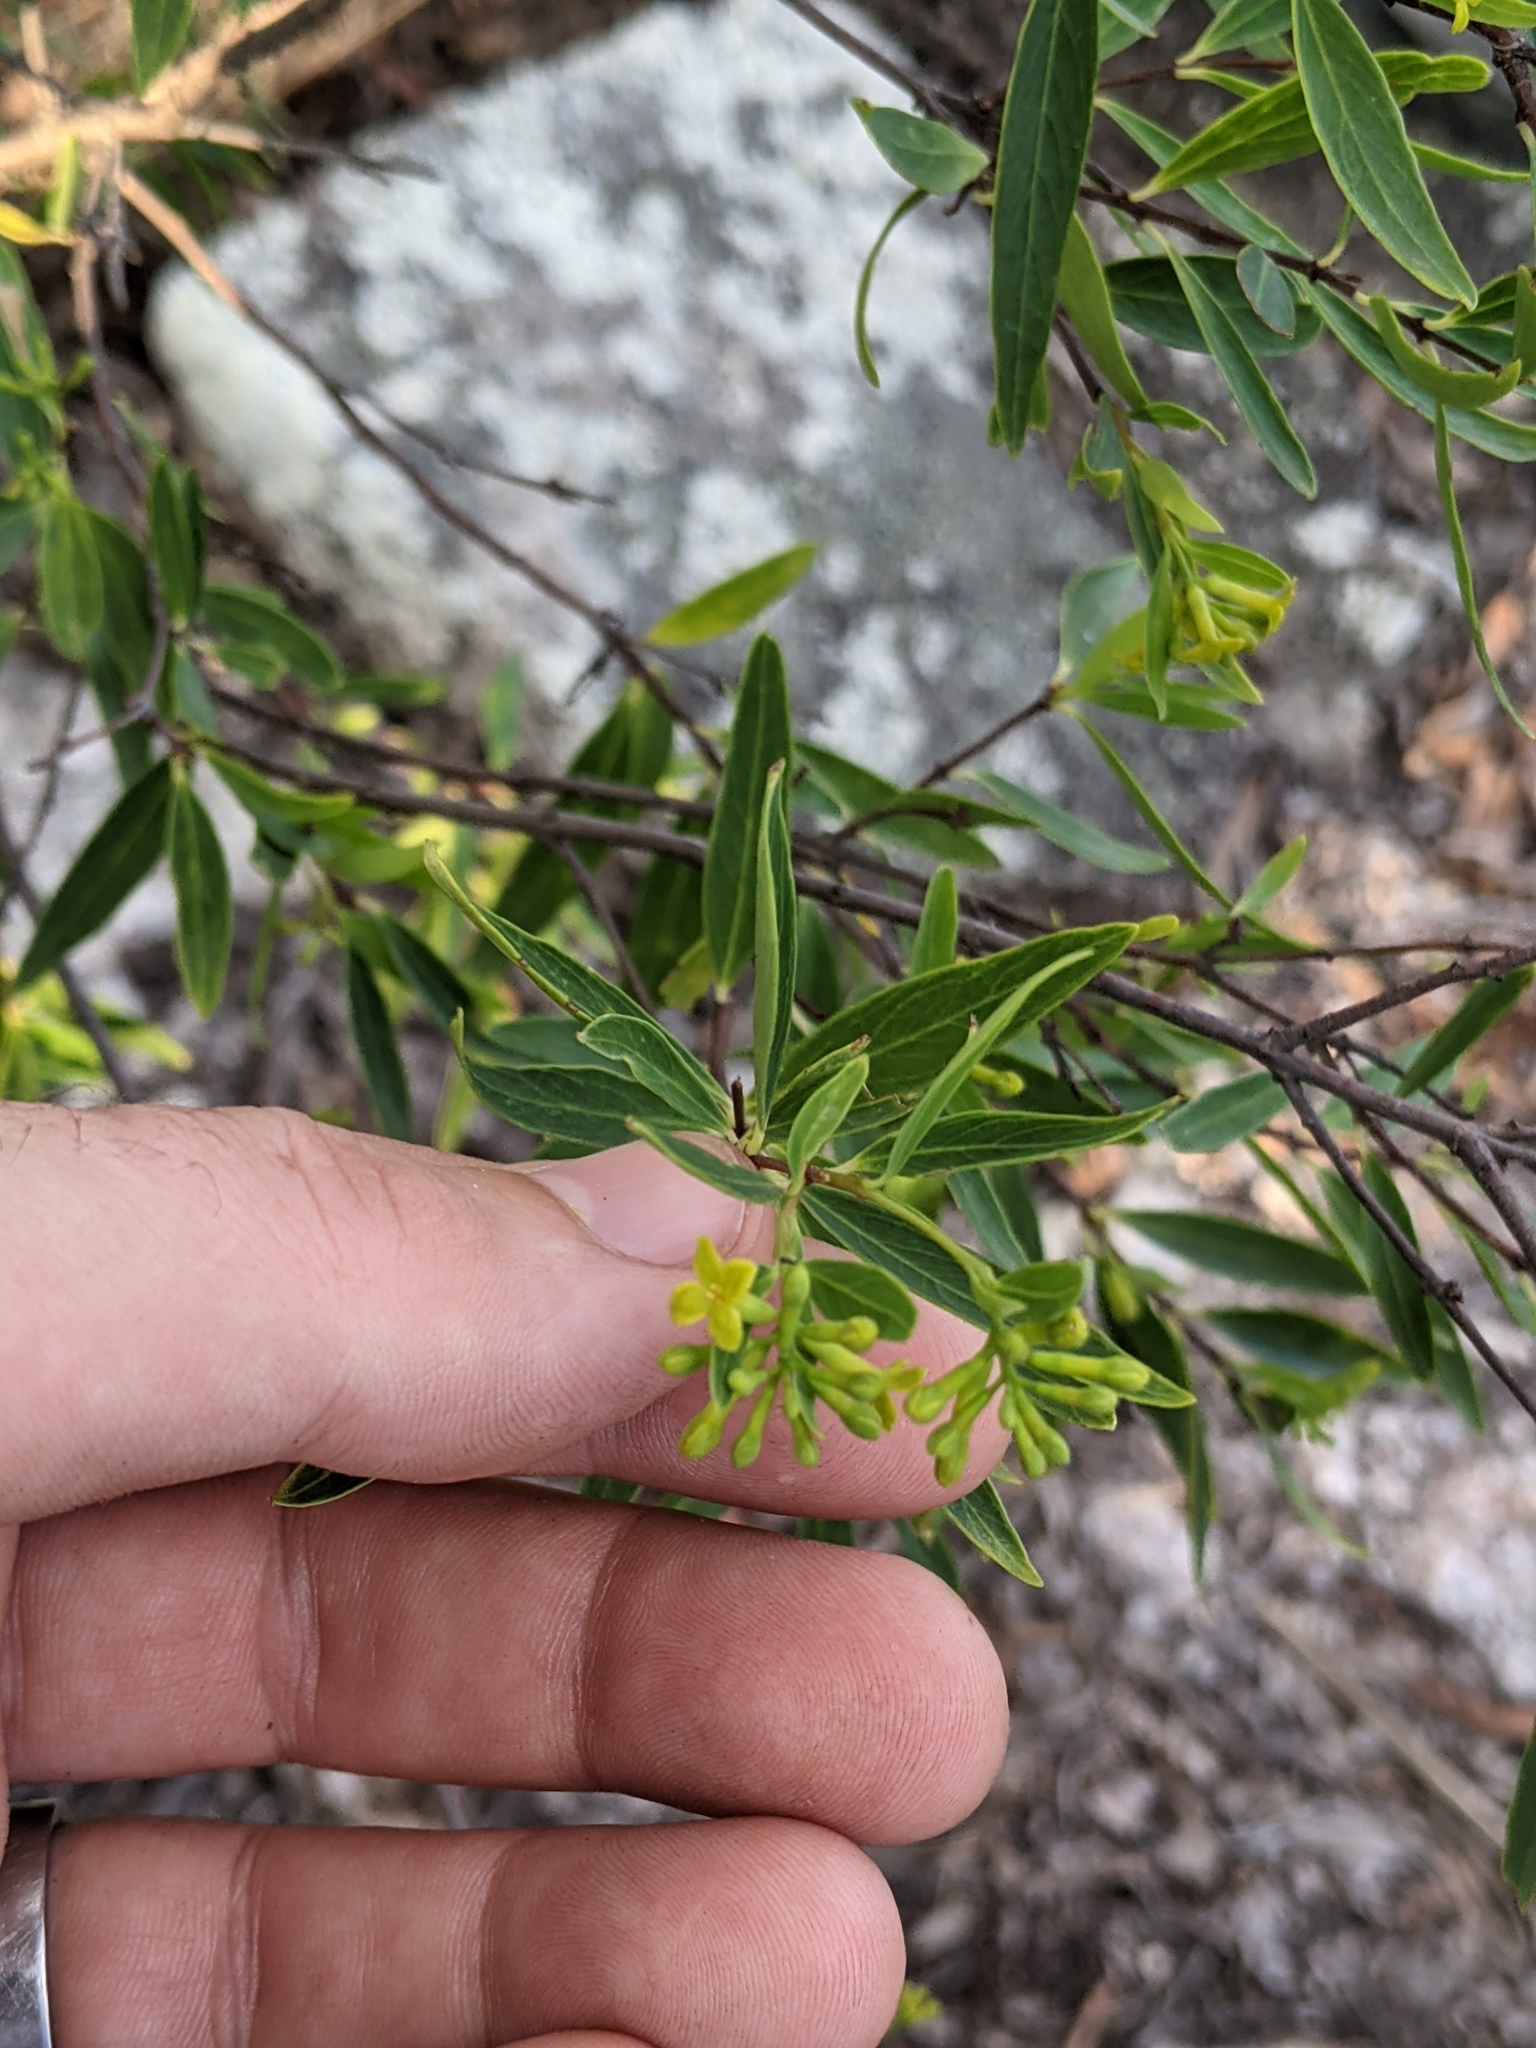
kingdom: Plantae
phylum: Tracheophyta
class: Magnoliopsida
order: Malvales
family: Thymelaeaceae
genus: Wikstroemia
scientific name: Wikstroemia indica
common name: Tiebush
